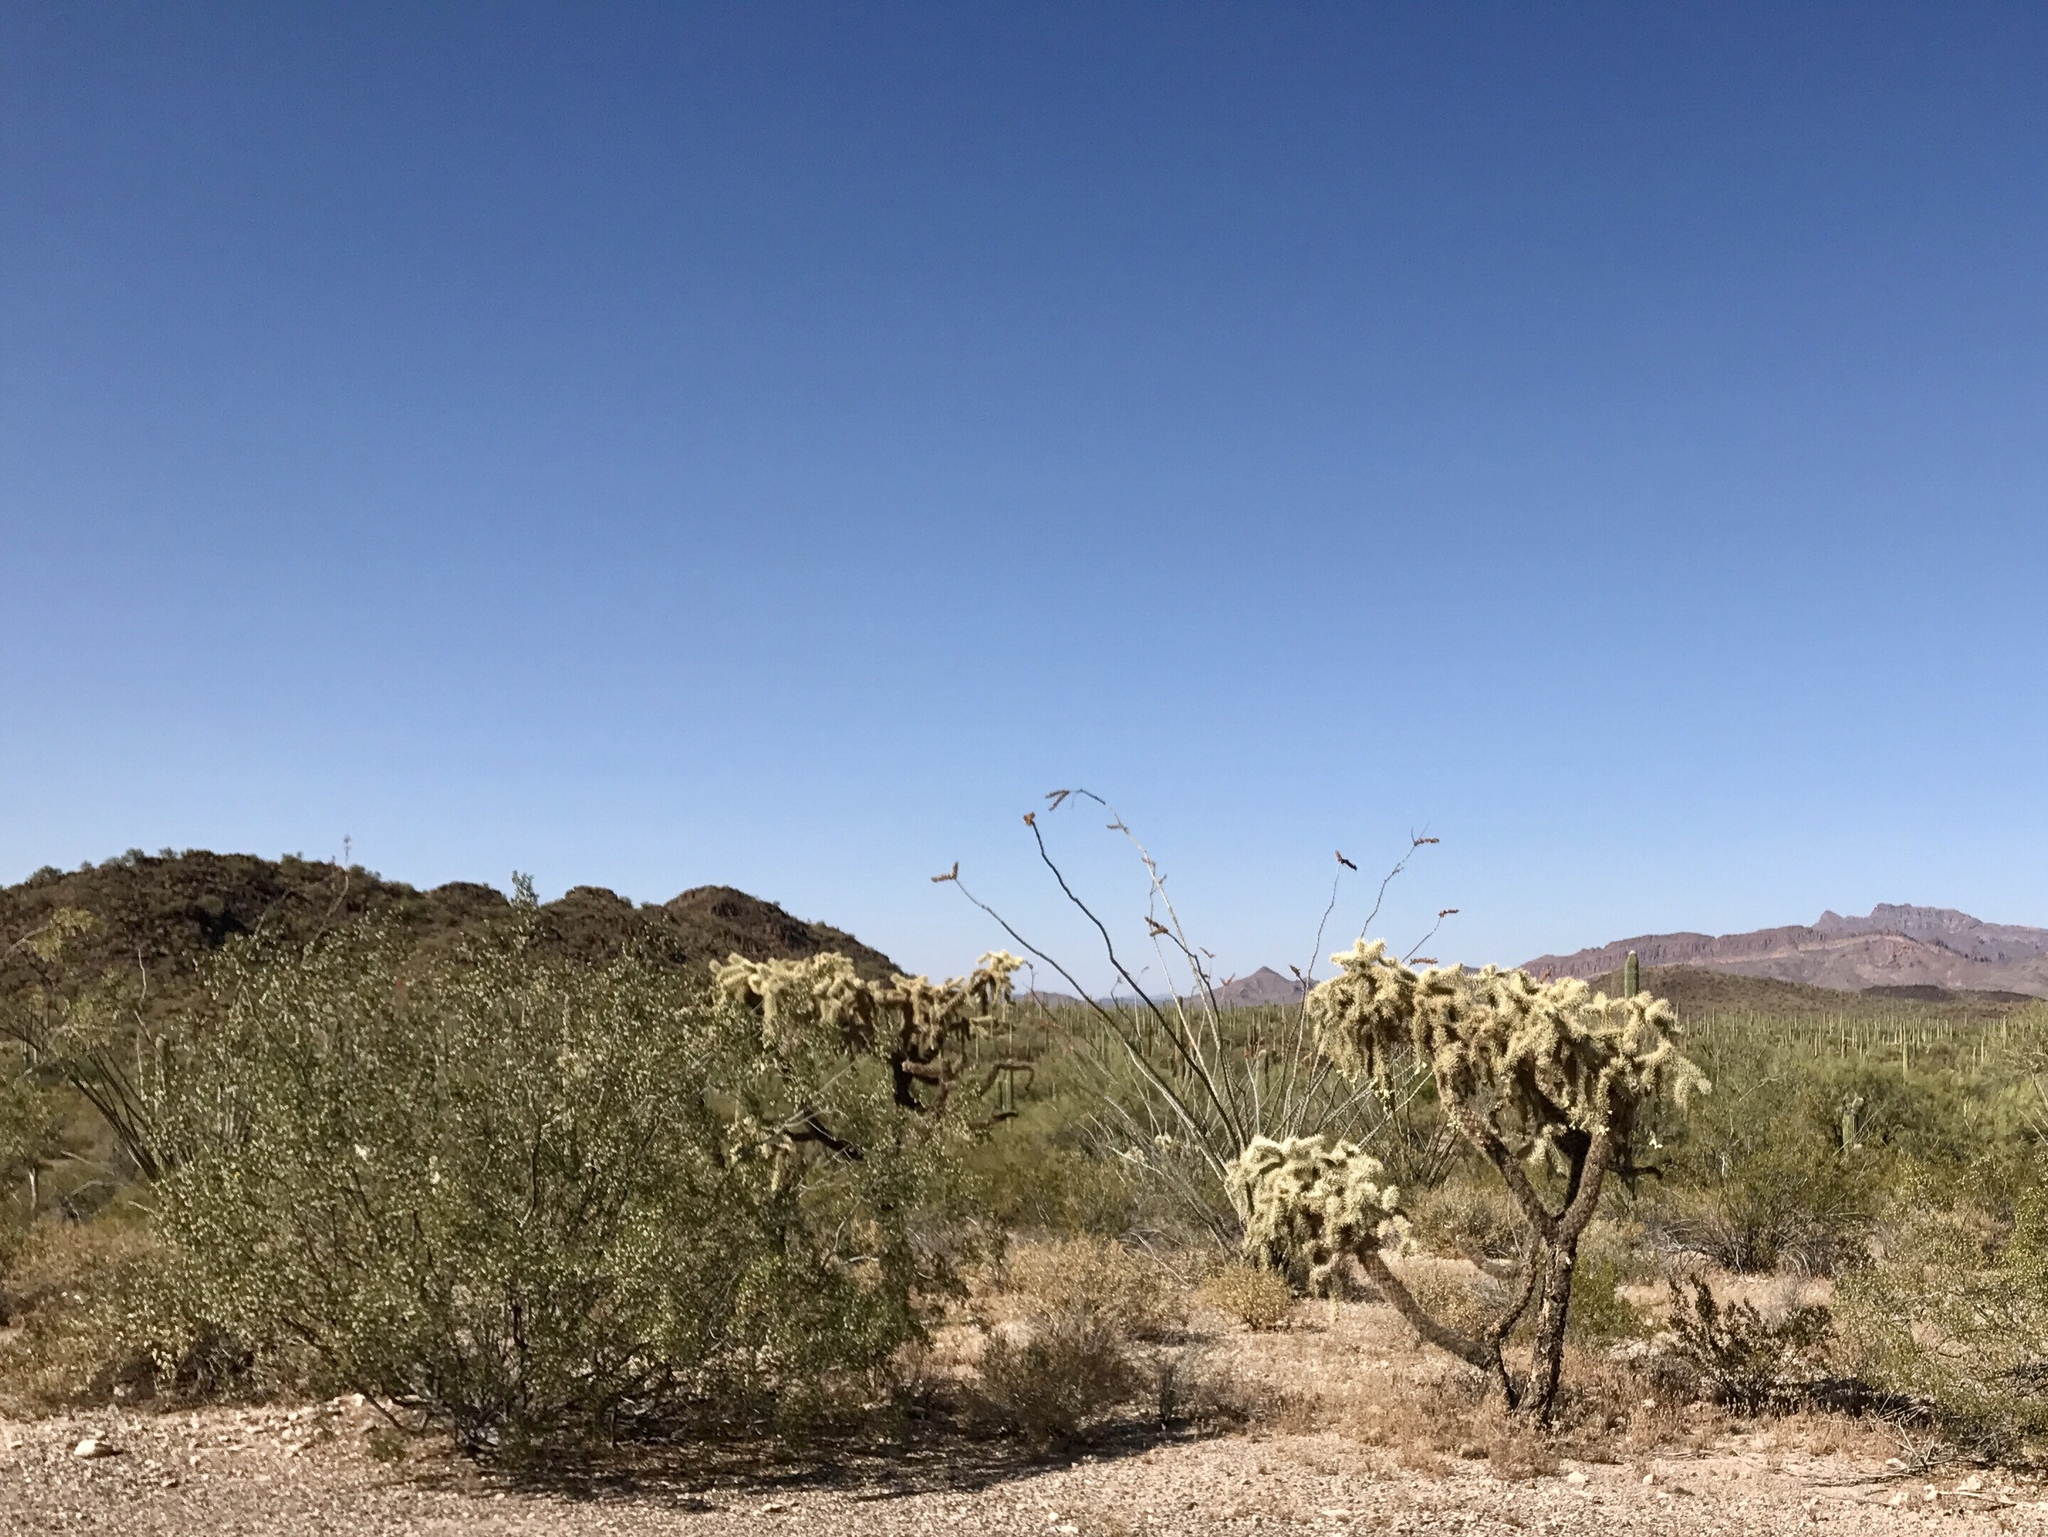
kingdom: Plantae
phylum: Tracheophyta
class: Magnoliopsida
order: Zygophyllales
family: Zygophyllaceae
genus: Larrea
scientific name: Larrea tridentata
